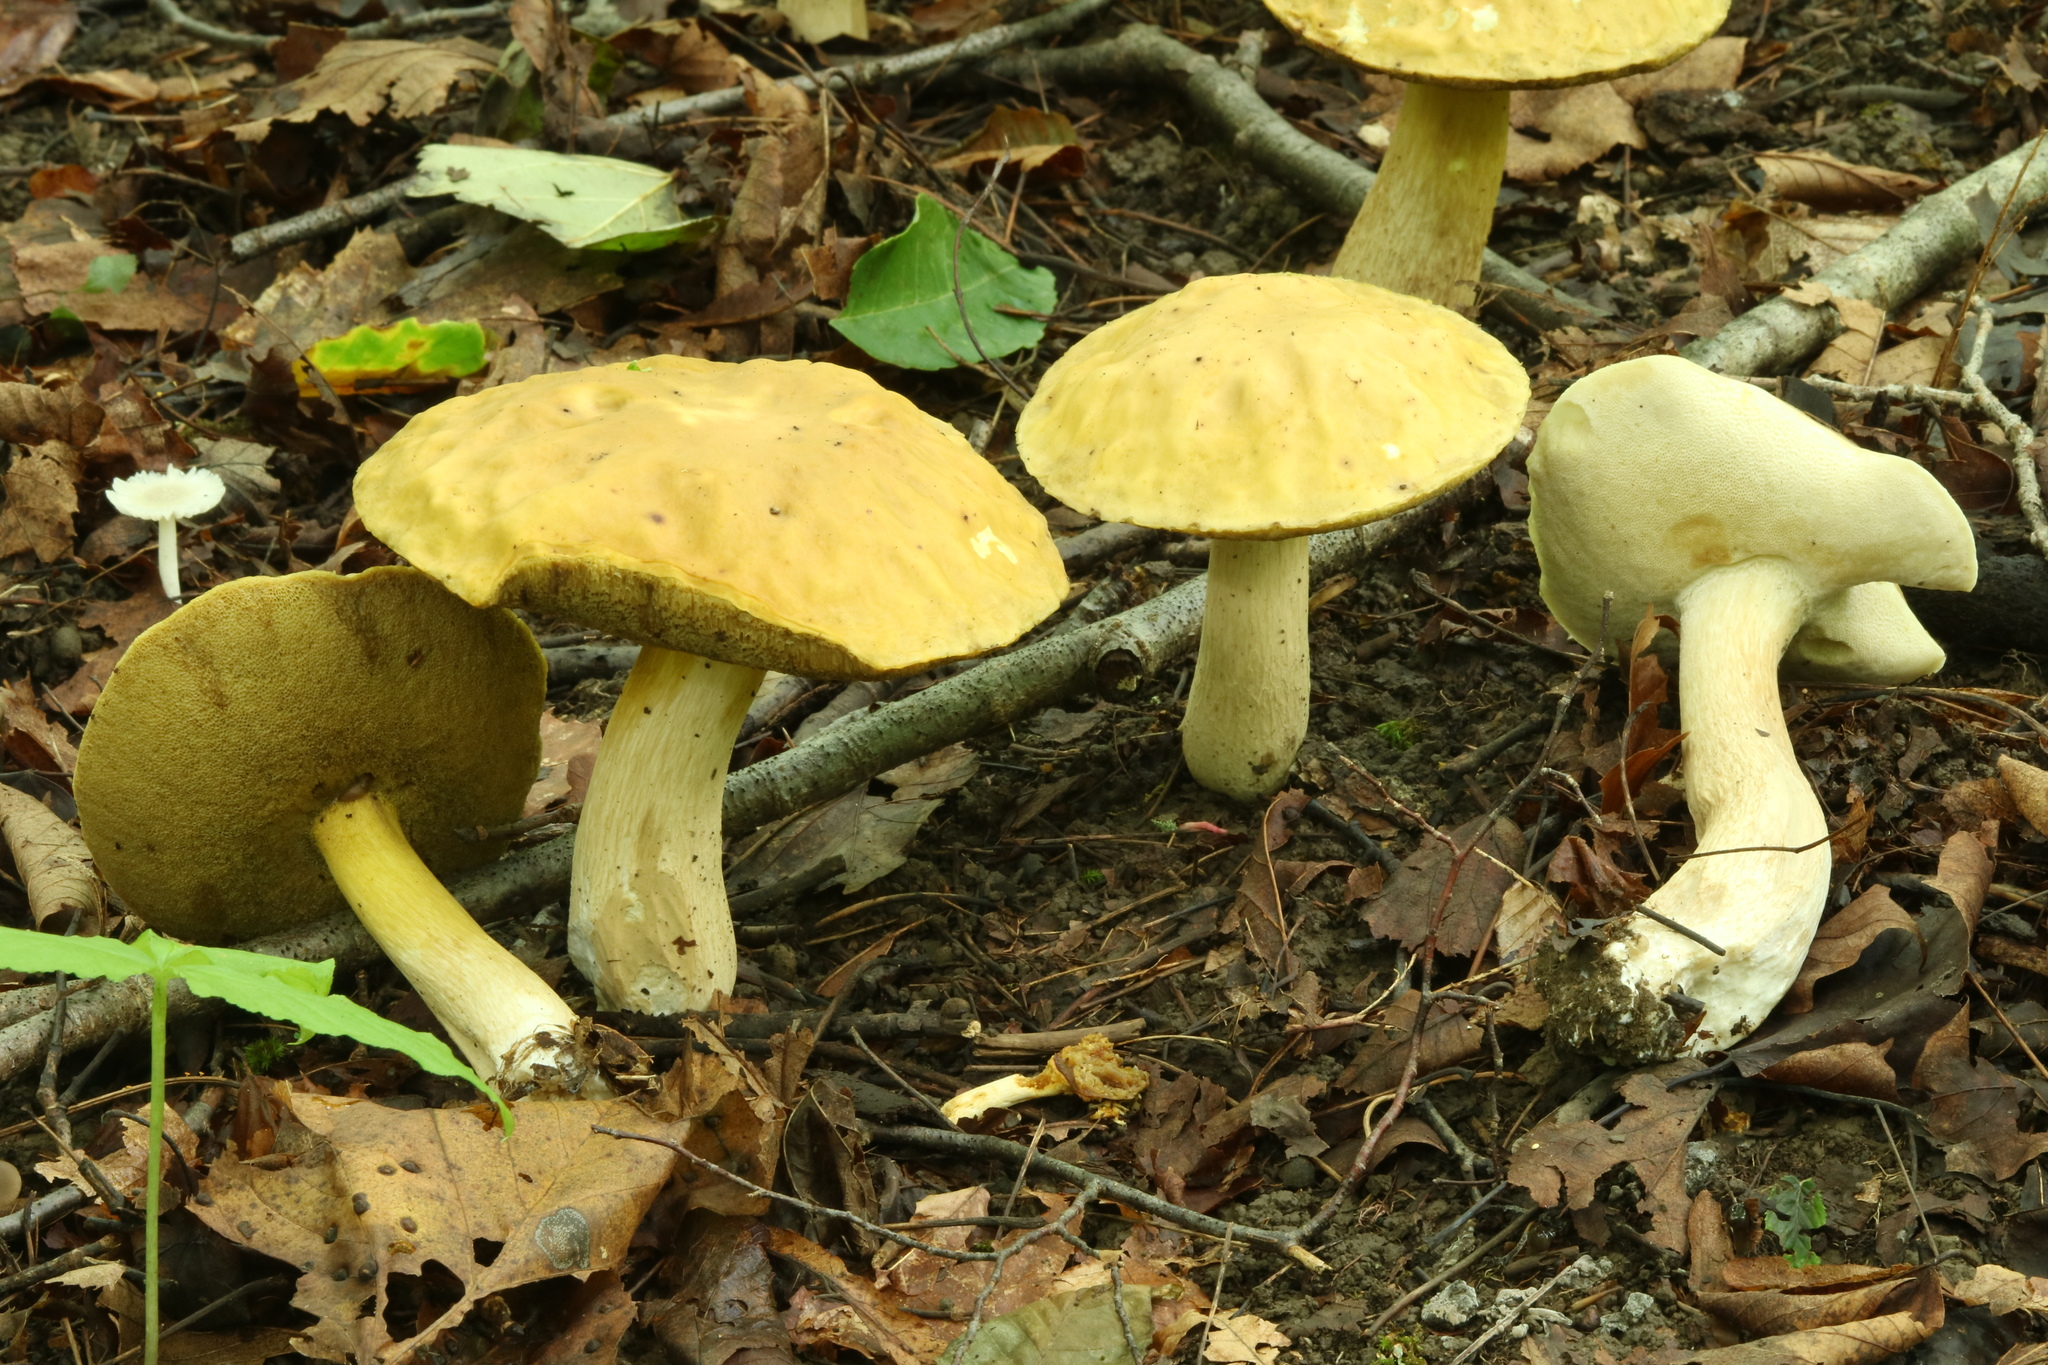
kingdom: Fungi
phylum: Basidiomycota
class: Agaricomycetes
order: Boletales
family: Boletaceae
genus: Boletus
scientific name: Boletus gertrudiae
